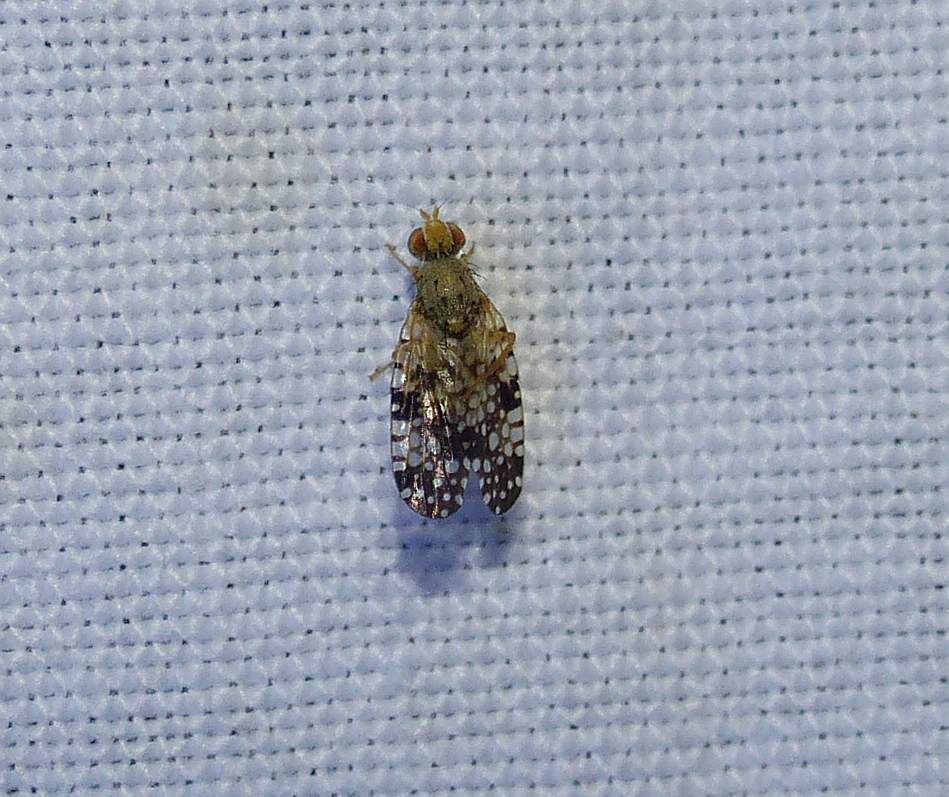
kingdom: Animalia
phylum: Arthropoda
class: Insecta
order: Diptera
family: Tephritidae
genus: Campiglossa
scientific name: Campiglossa albiceps
